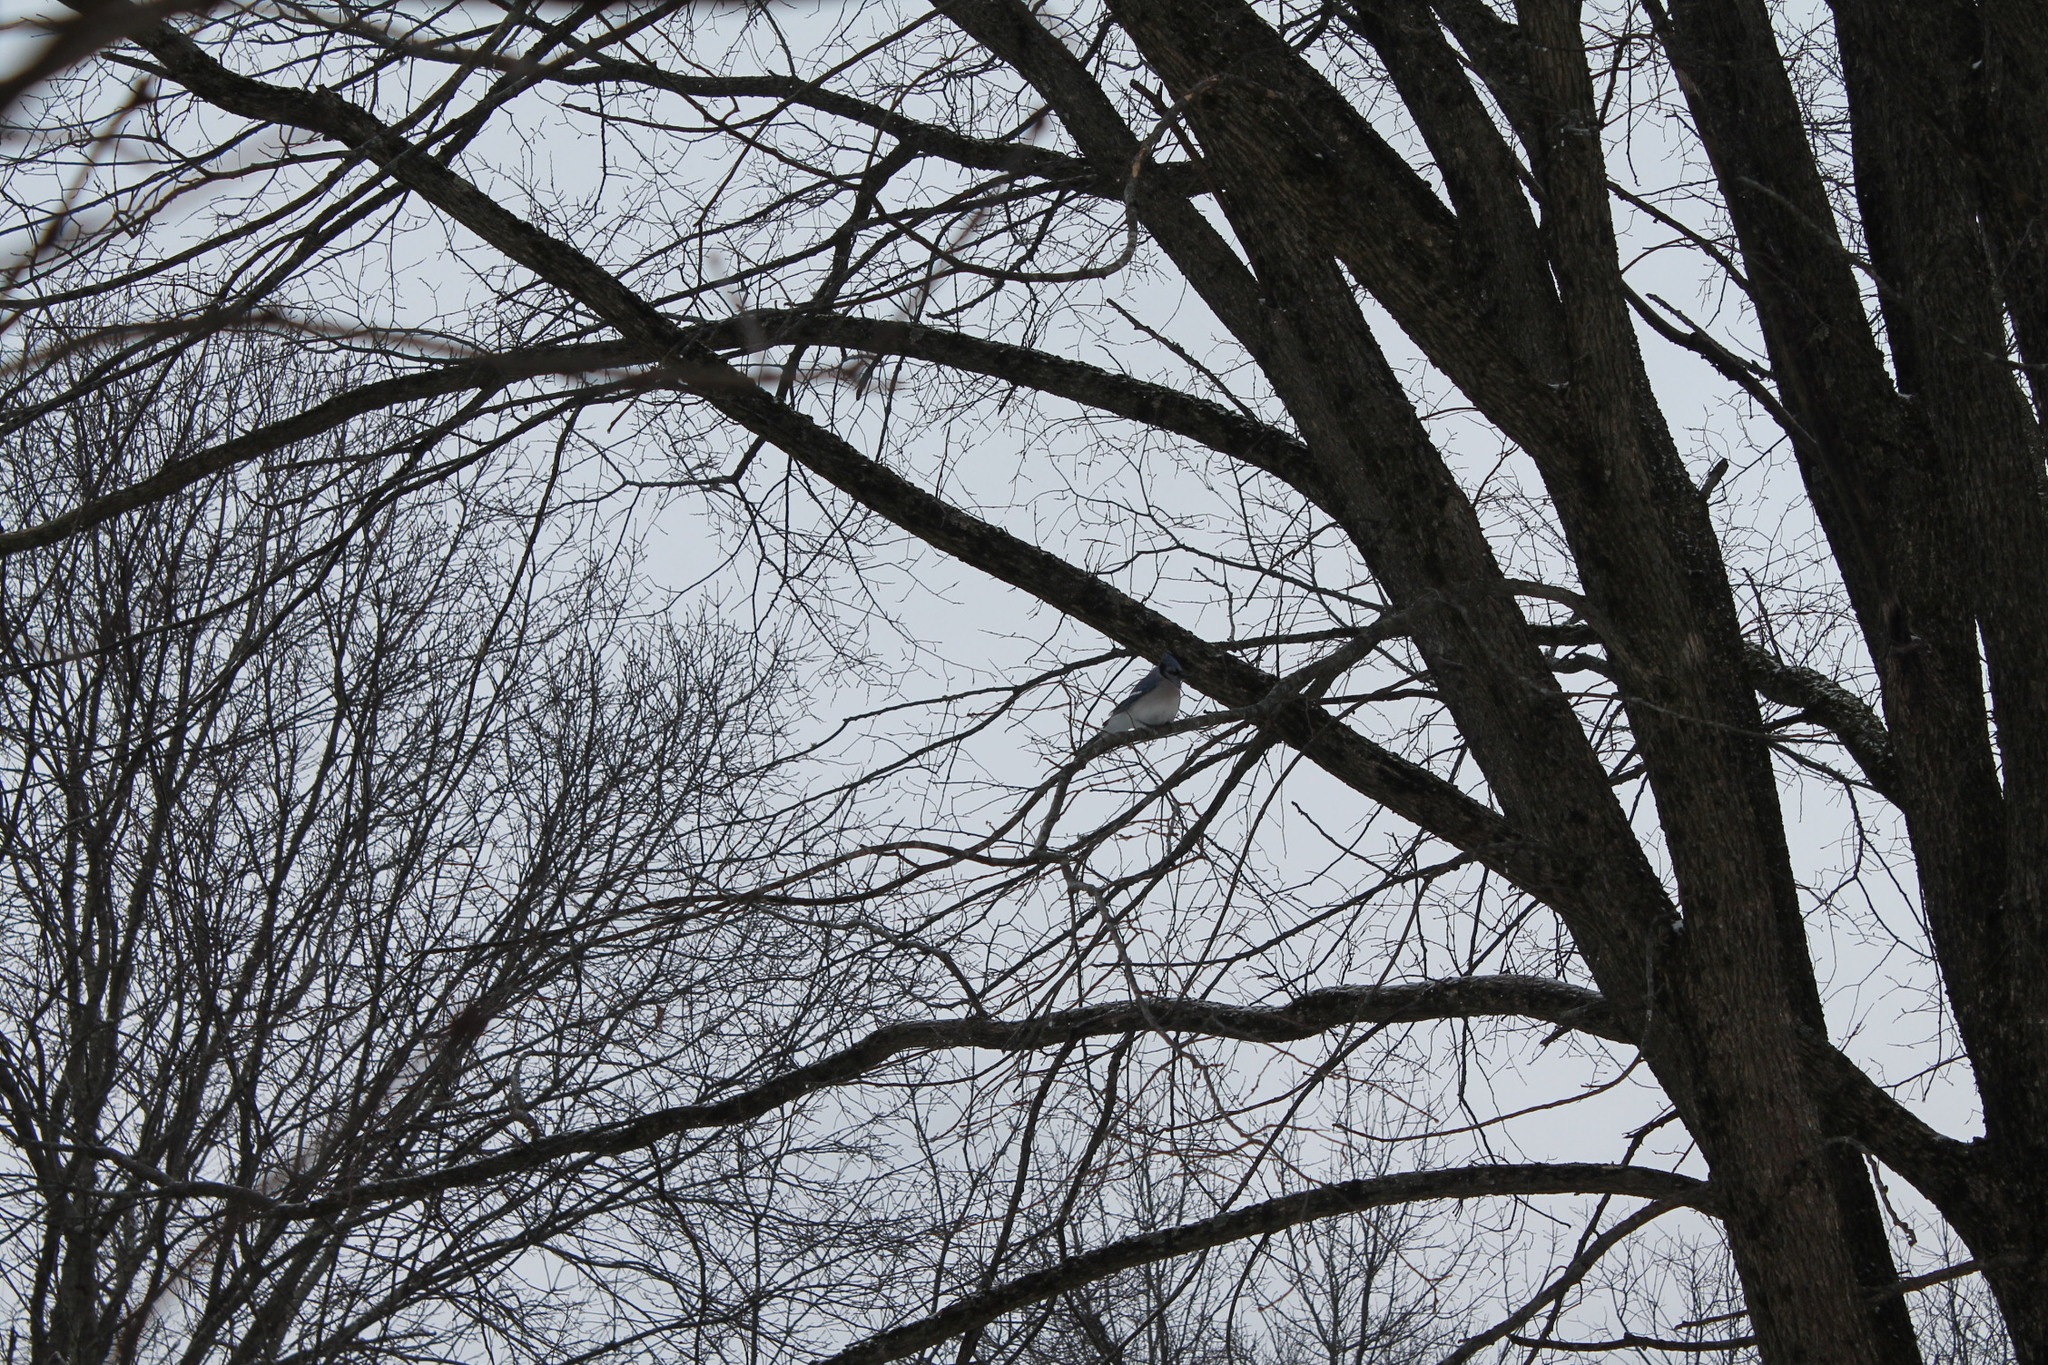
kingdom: Animalia
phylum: Chordata
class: Aves
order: Passeriformes
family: Corvidae
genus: Cyanocitta
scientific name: Cyanocitta cristata
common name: Blue jay
